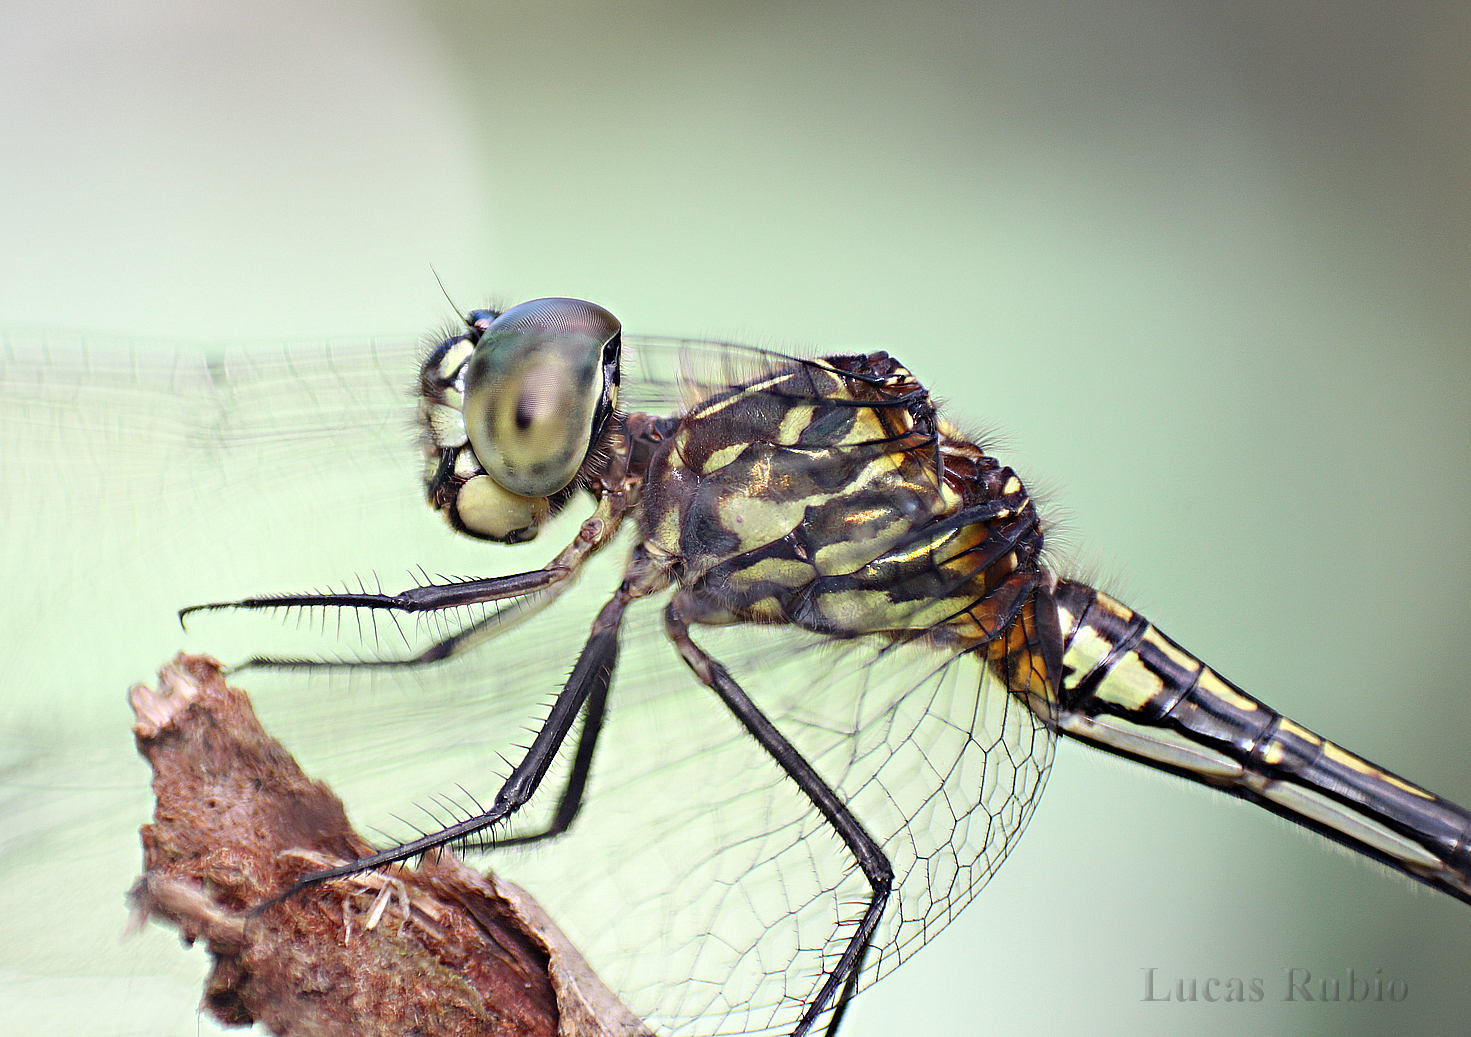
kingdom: Animalia
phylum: Arthropoda
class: Insecta
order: Odonata
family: Libellulidae
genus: Dythemis
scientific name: Dythemis nigra
